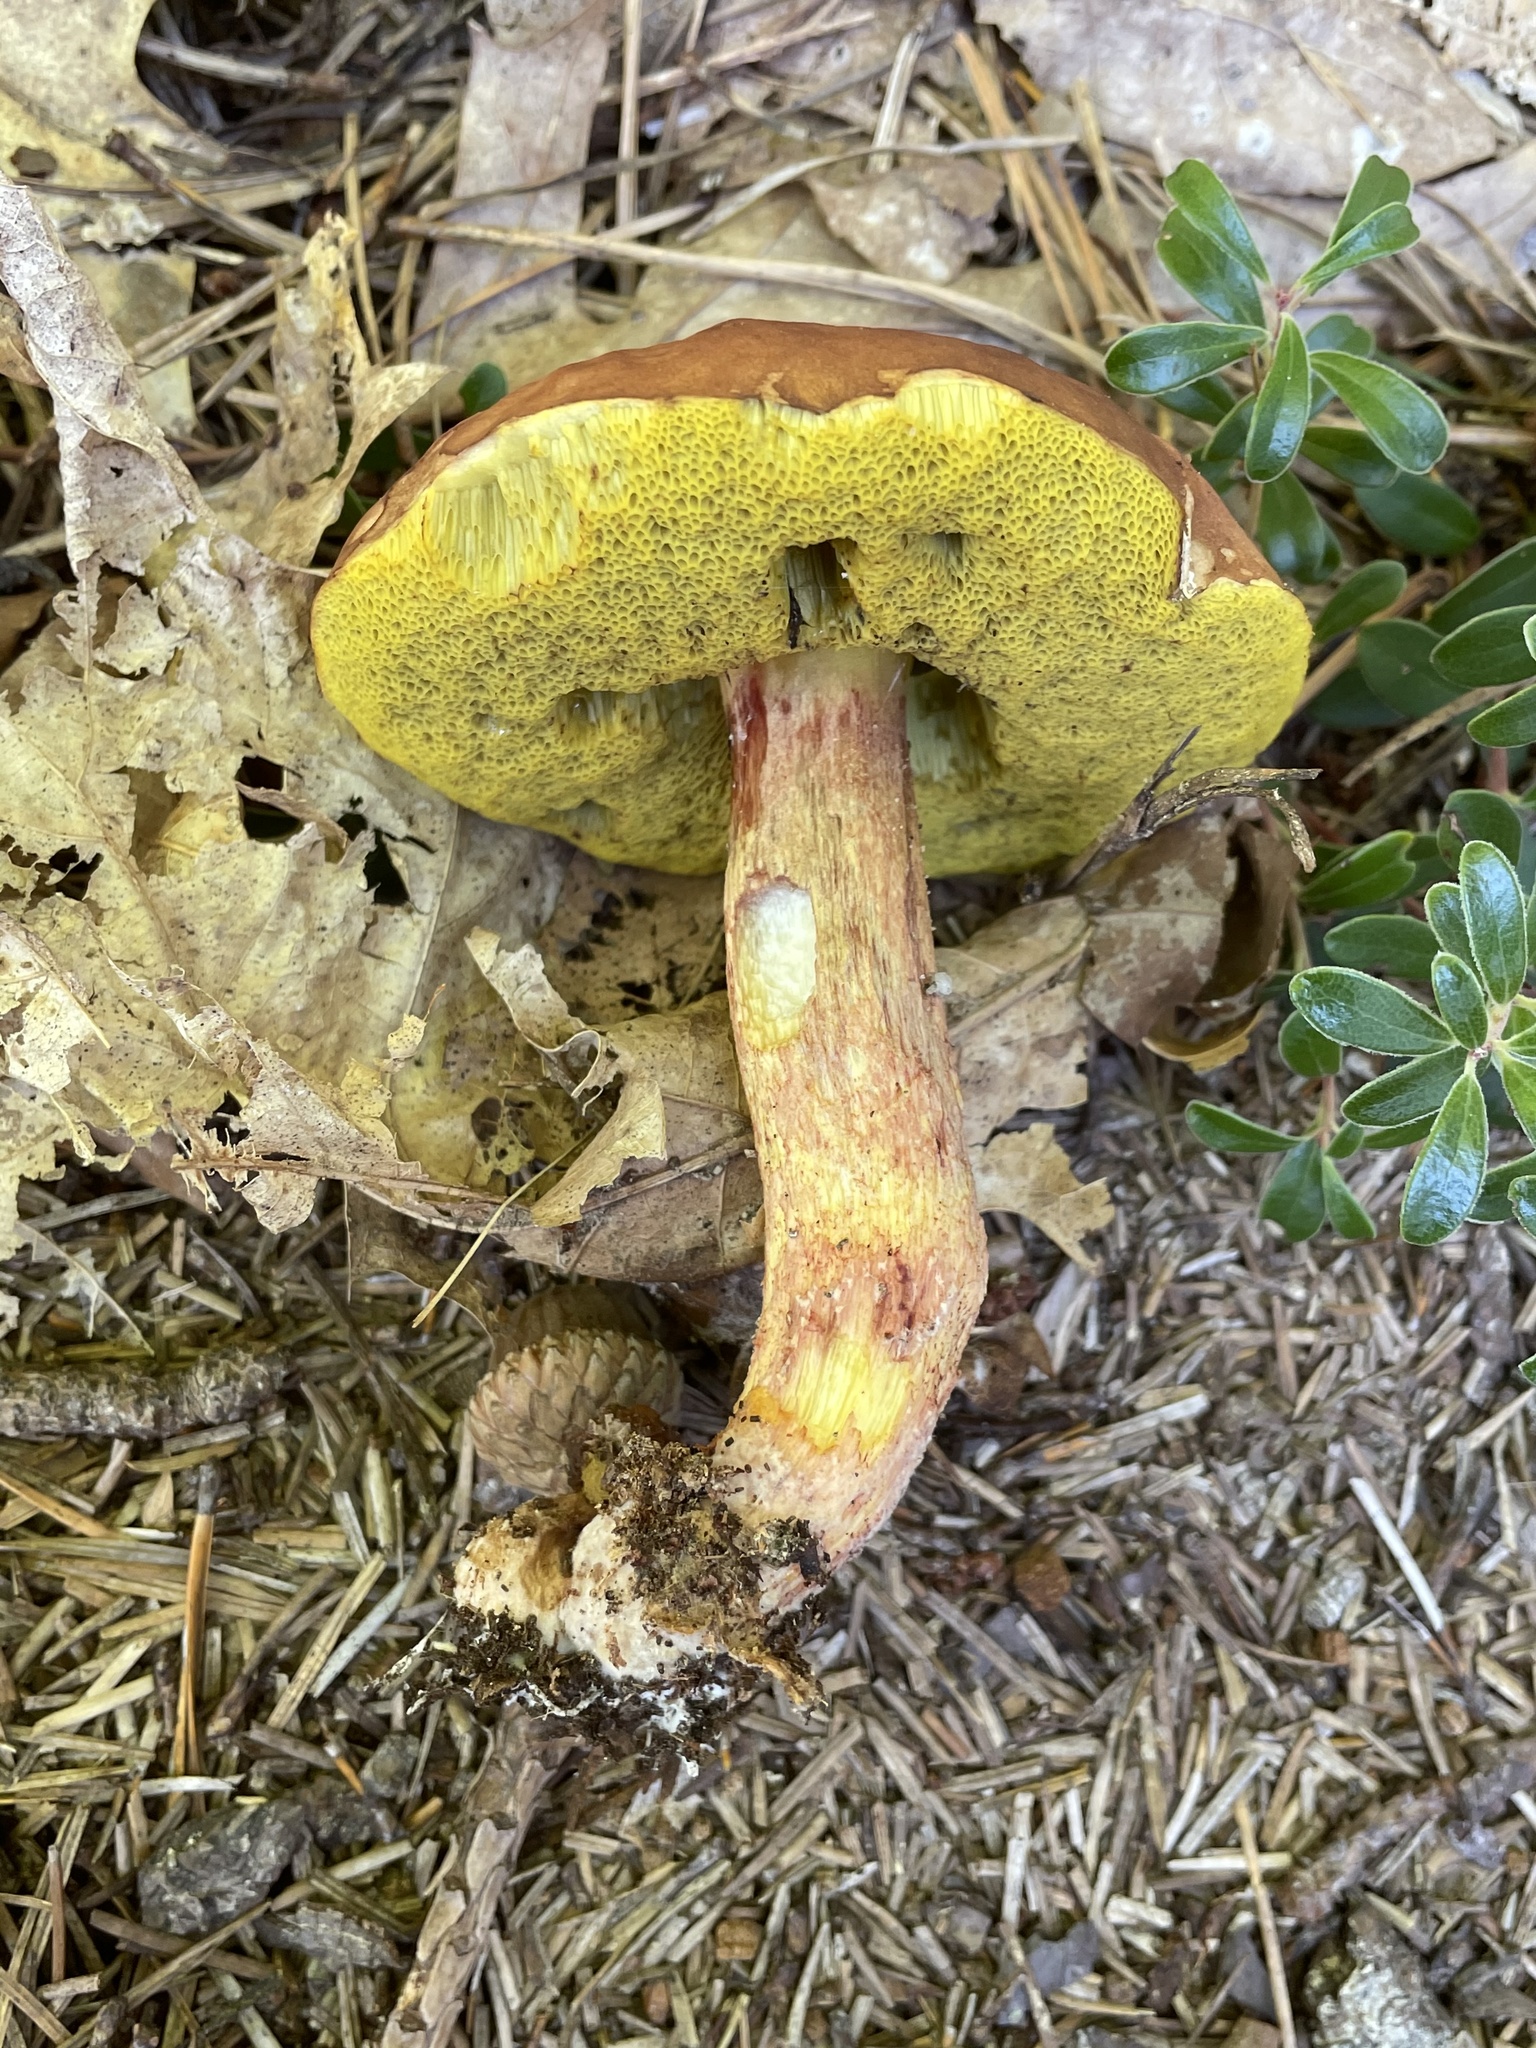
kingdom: Fungi
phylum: Basidiomycota
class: Agaricomycetes
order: Boletales
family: Boletaceae
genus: Hemileccinum
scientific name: Hemileccinum rubropunctum
